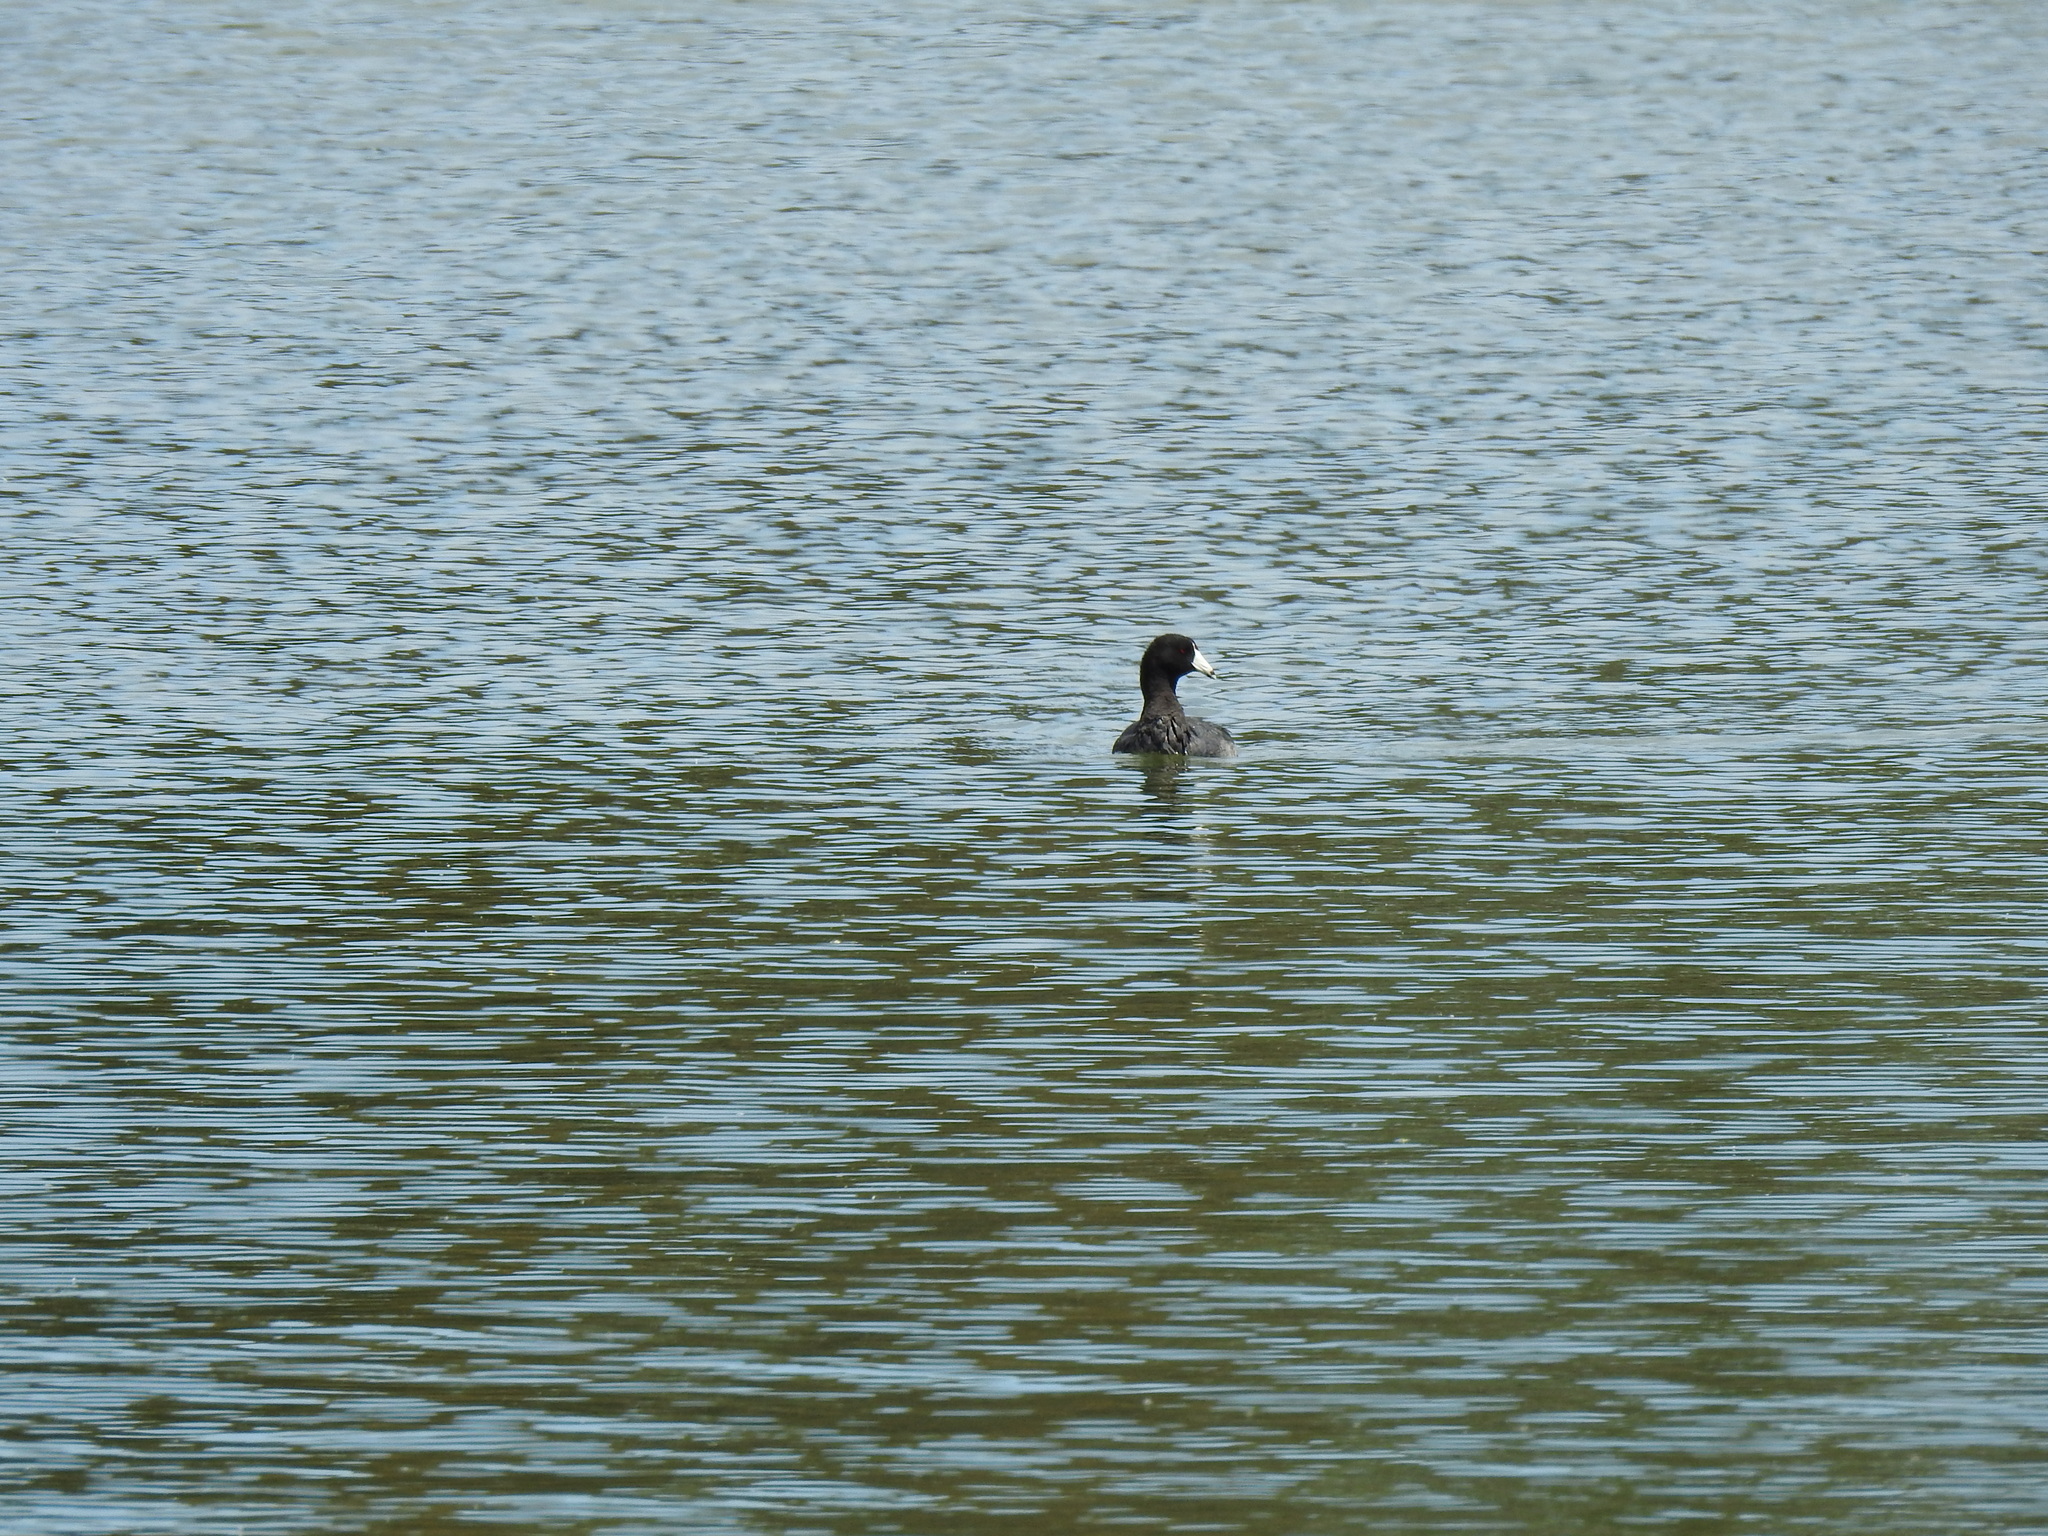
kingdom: Animalia
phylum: Chordata
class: Aves
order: Gruiformes
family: Rallidae
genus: Fulica
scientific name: Fulica americana
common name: American coot
